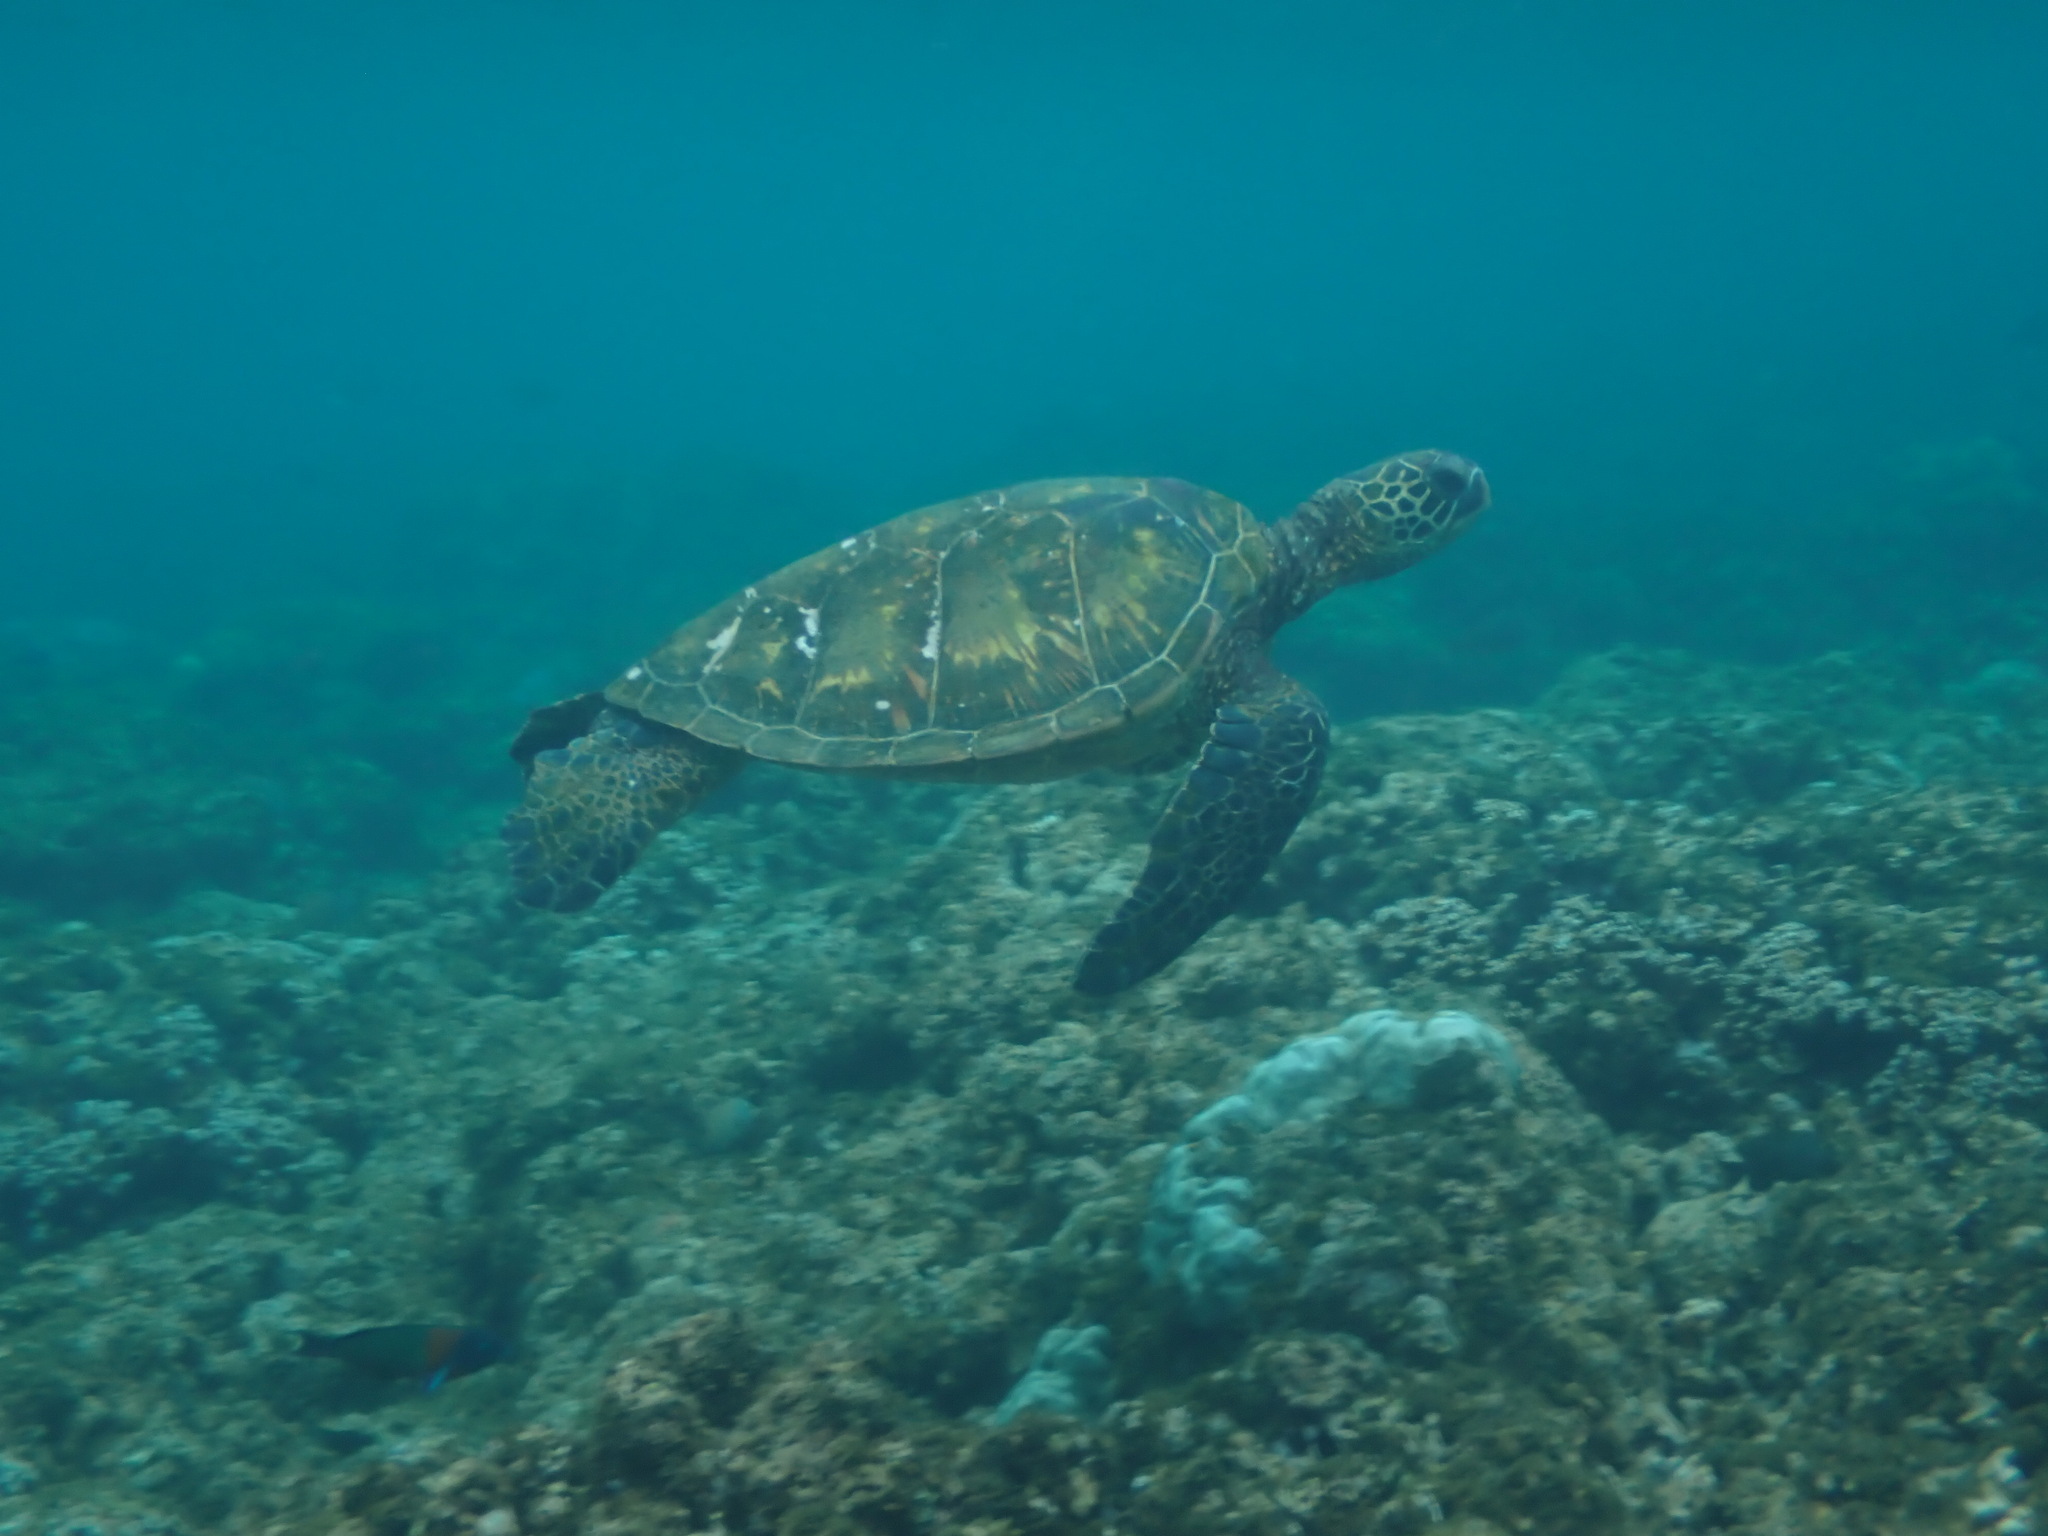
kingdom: Animalia
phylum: Chordata
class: Testudines
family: Cheloniidae
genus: Chelonia
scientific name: Chelonia mydas
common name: Green turtle
